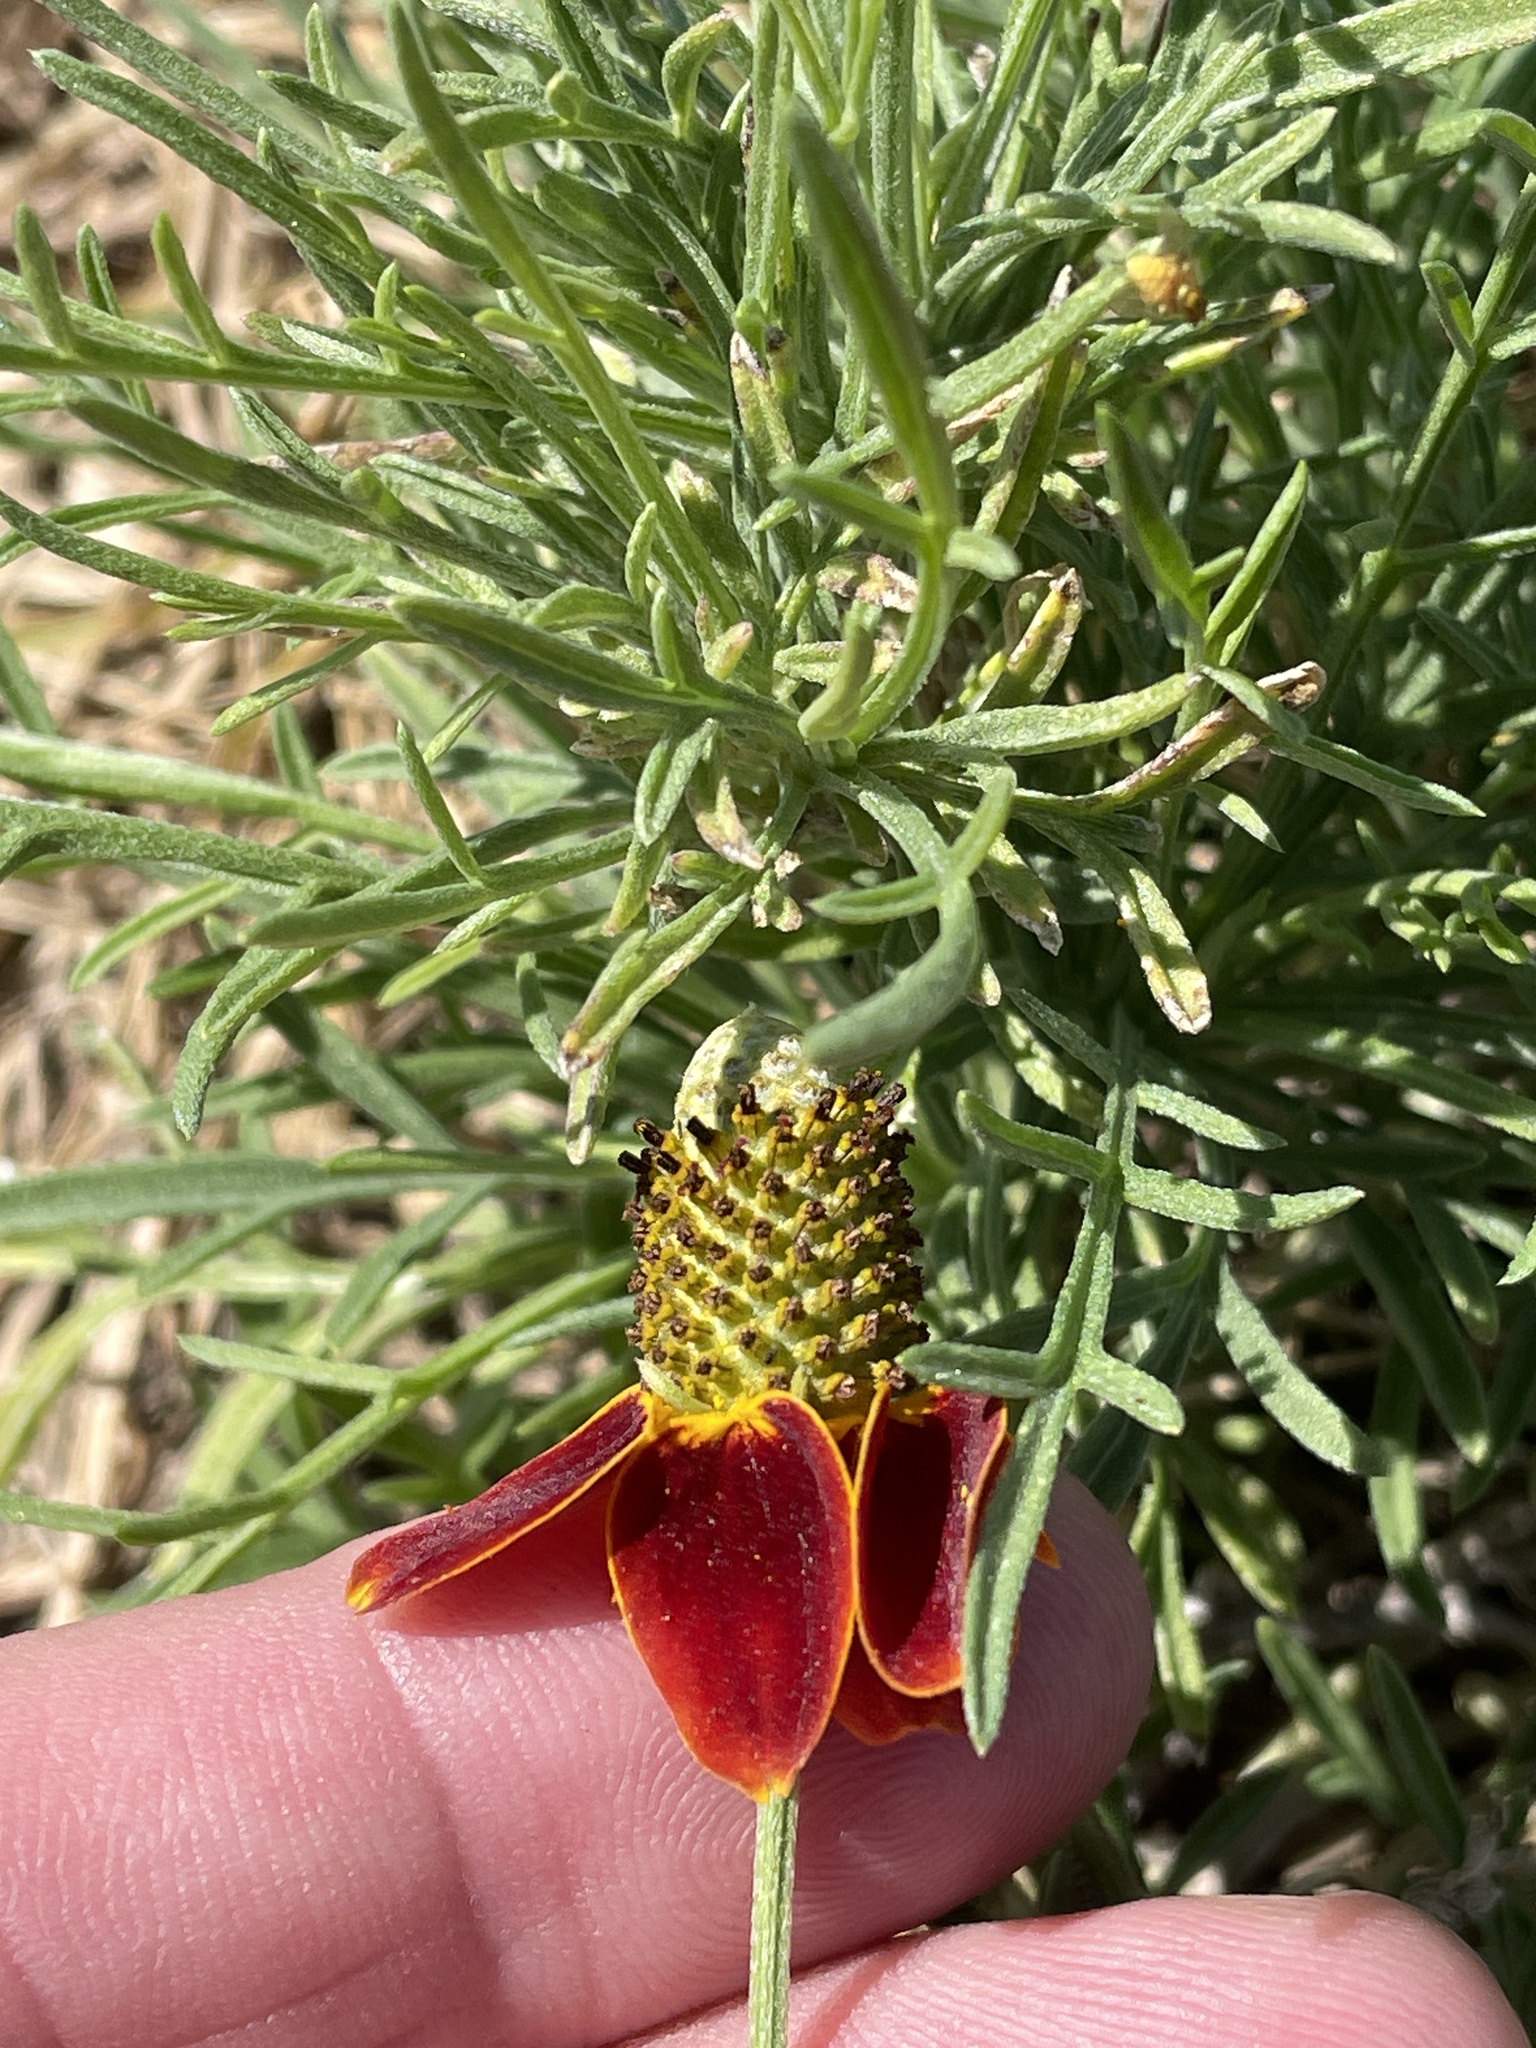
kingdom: Plantae
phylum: Tracheophyta
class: Magnoliopsida
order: Asterales
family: Asteraceae
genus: Ratibida
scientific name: Ratibida columnifera
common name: Prairie coneflower
